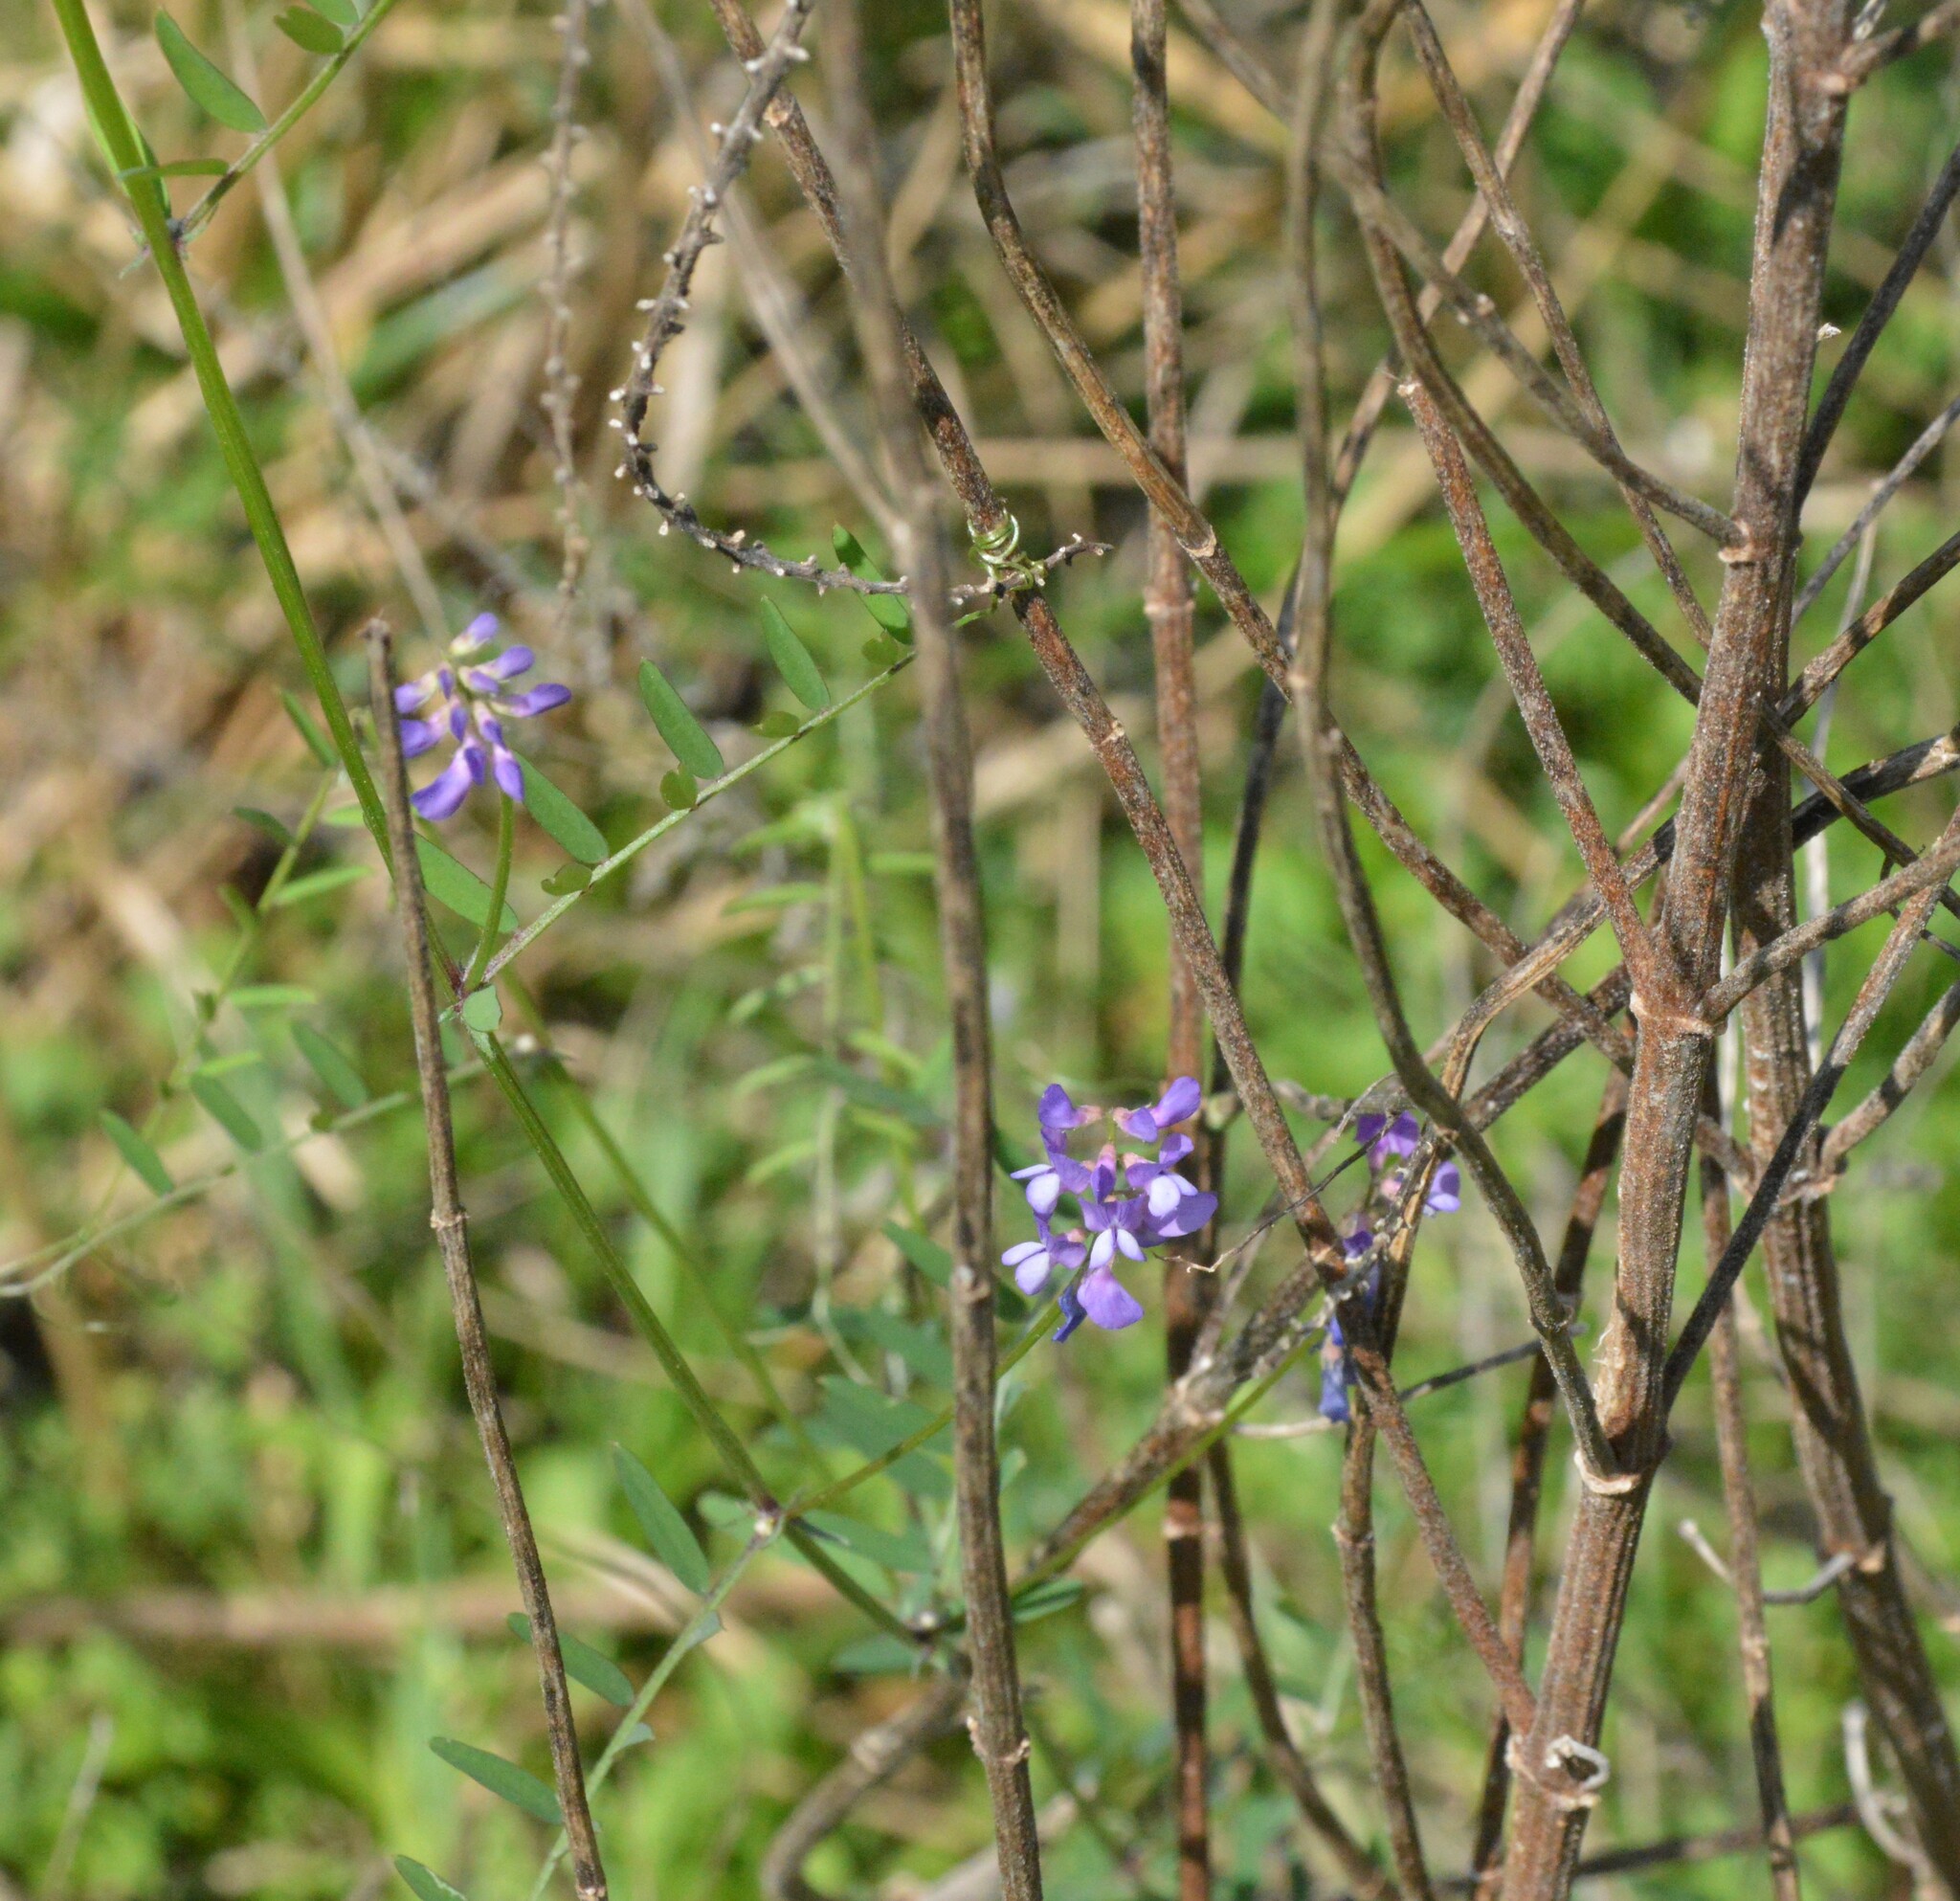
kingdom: Plantae
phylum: Tracheophyta
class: Magnoliopsida
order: Fabales
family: Fabaceae
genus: Vicia
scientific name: Vicia ludoviciana
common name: Louisiana vetch
